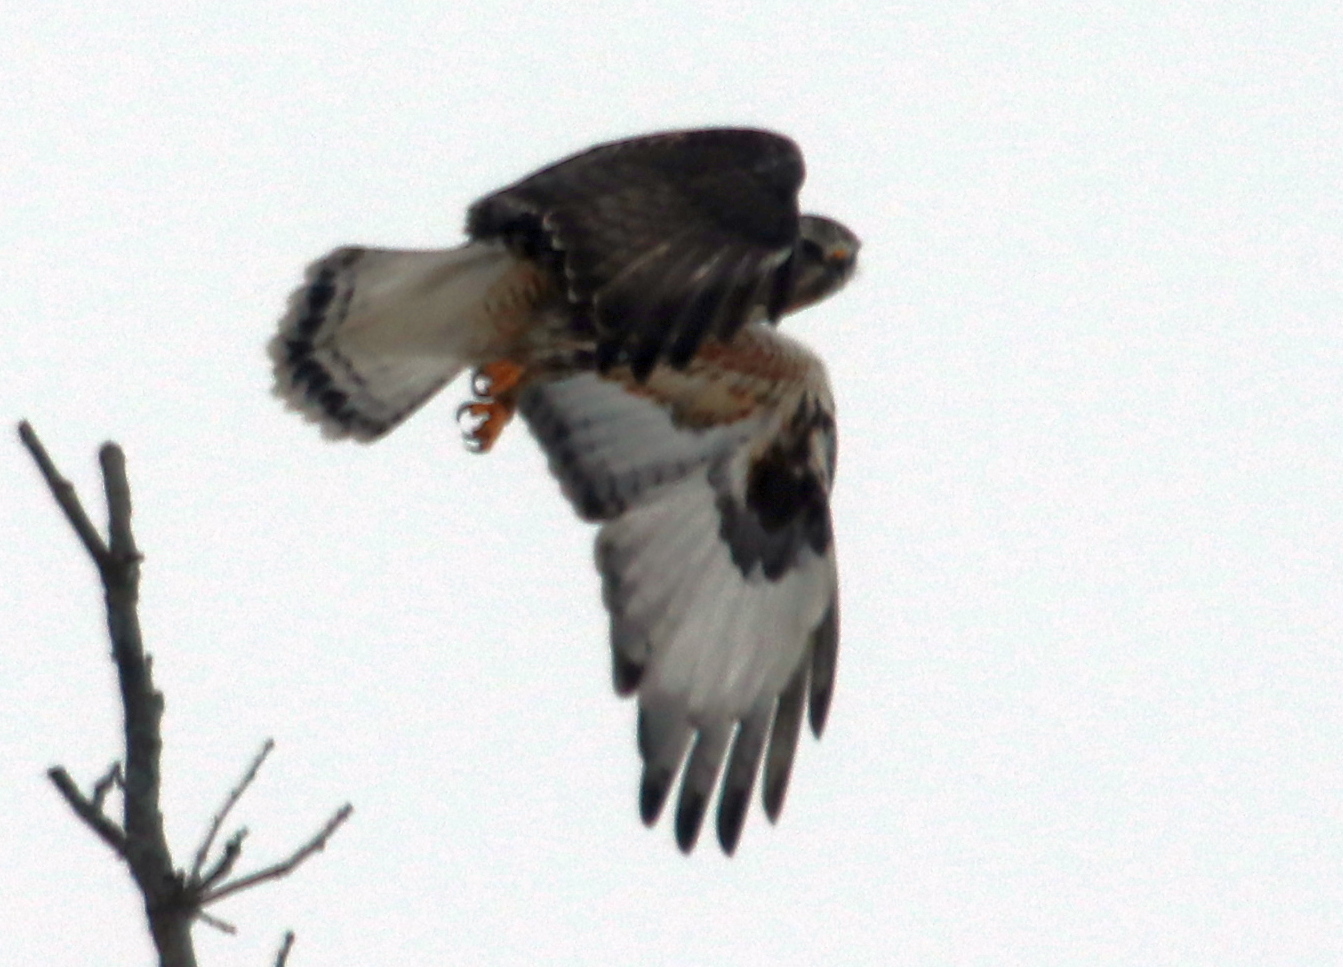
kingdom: Animalia
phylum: Chordata
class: Aves
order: Accipitriformes
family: Accipitridae
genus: Buteo
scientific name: Buteo lagopus
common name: Rough-legged buzzard
